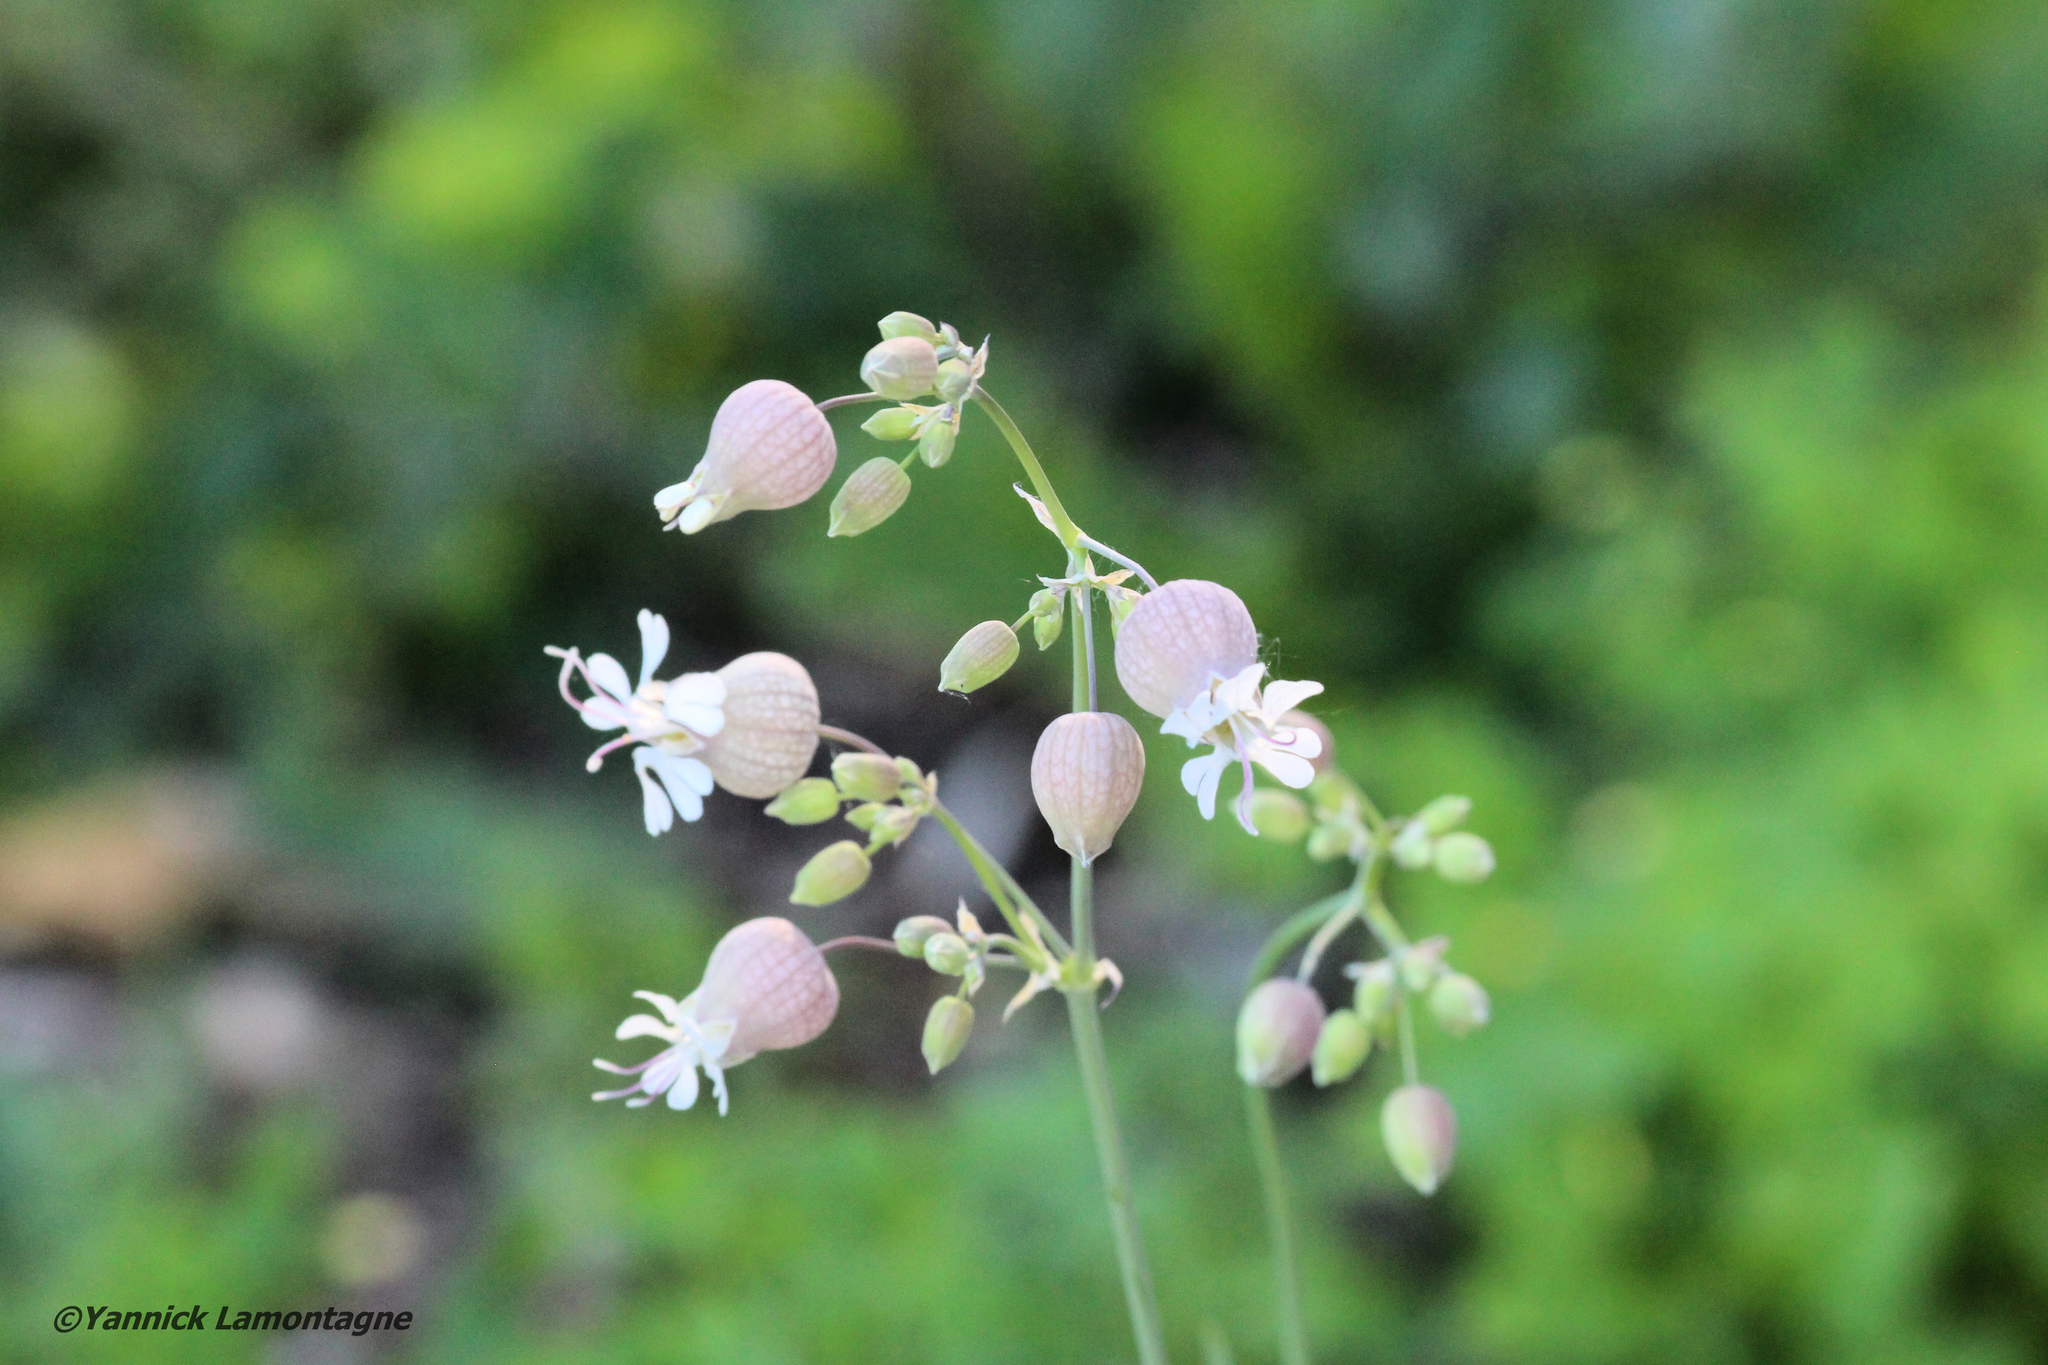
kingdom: Plantae
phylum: Tracheophyta
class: Magnoliopsida
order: Caryophyllales
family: Caryophyllaceae
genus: Silene
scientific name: Silene vulgaris
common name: Bladder campion
